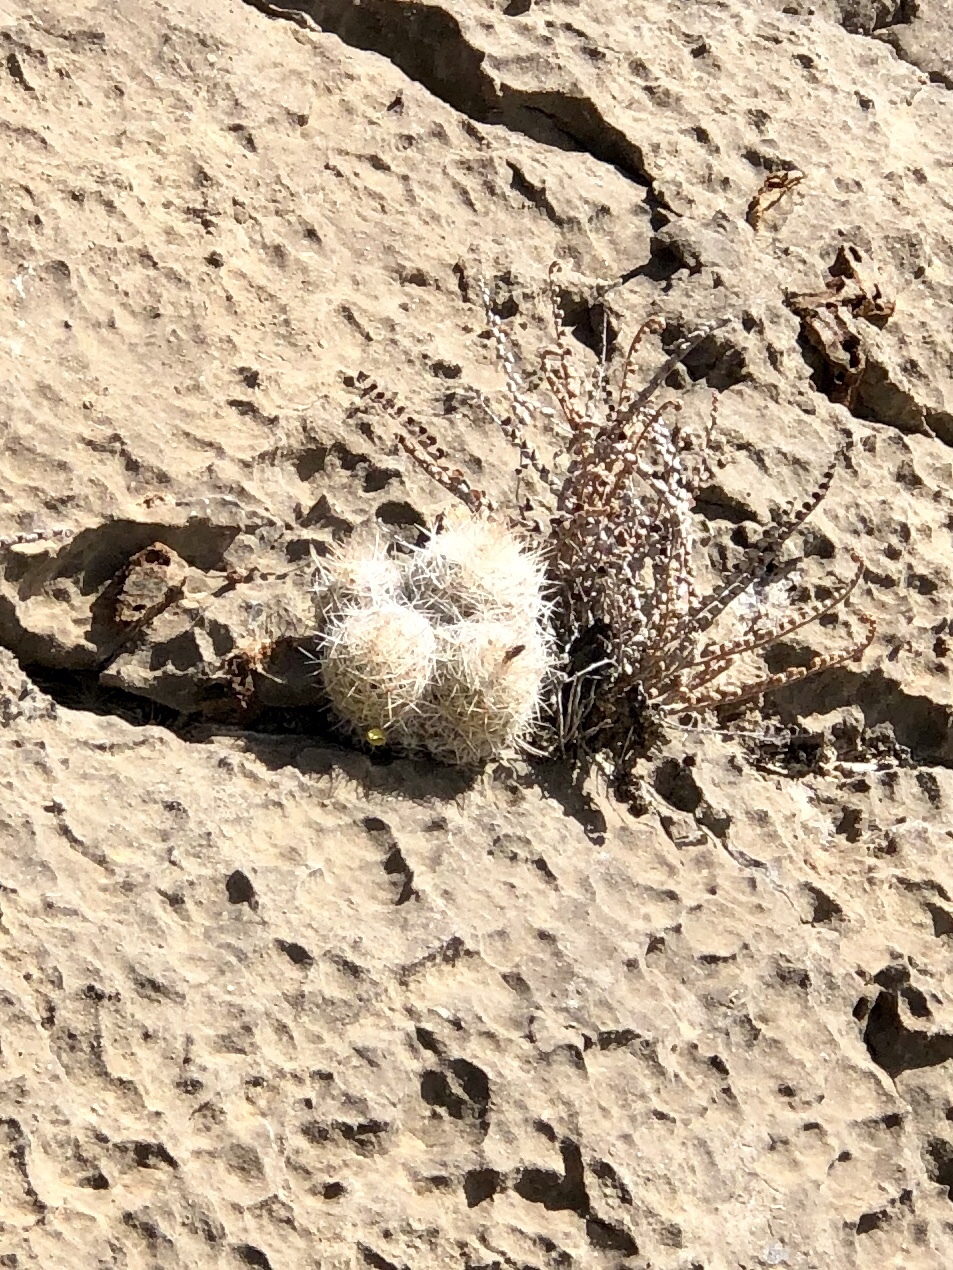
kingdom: Plantae
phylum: Tracheophyta
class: Magnoliopsida
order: Caryophyllales
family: Cactaceae
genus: Pelecyphora
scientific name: Pelecyphora tuberculosa
